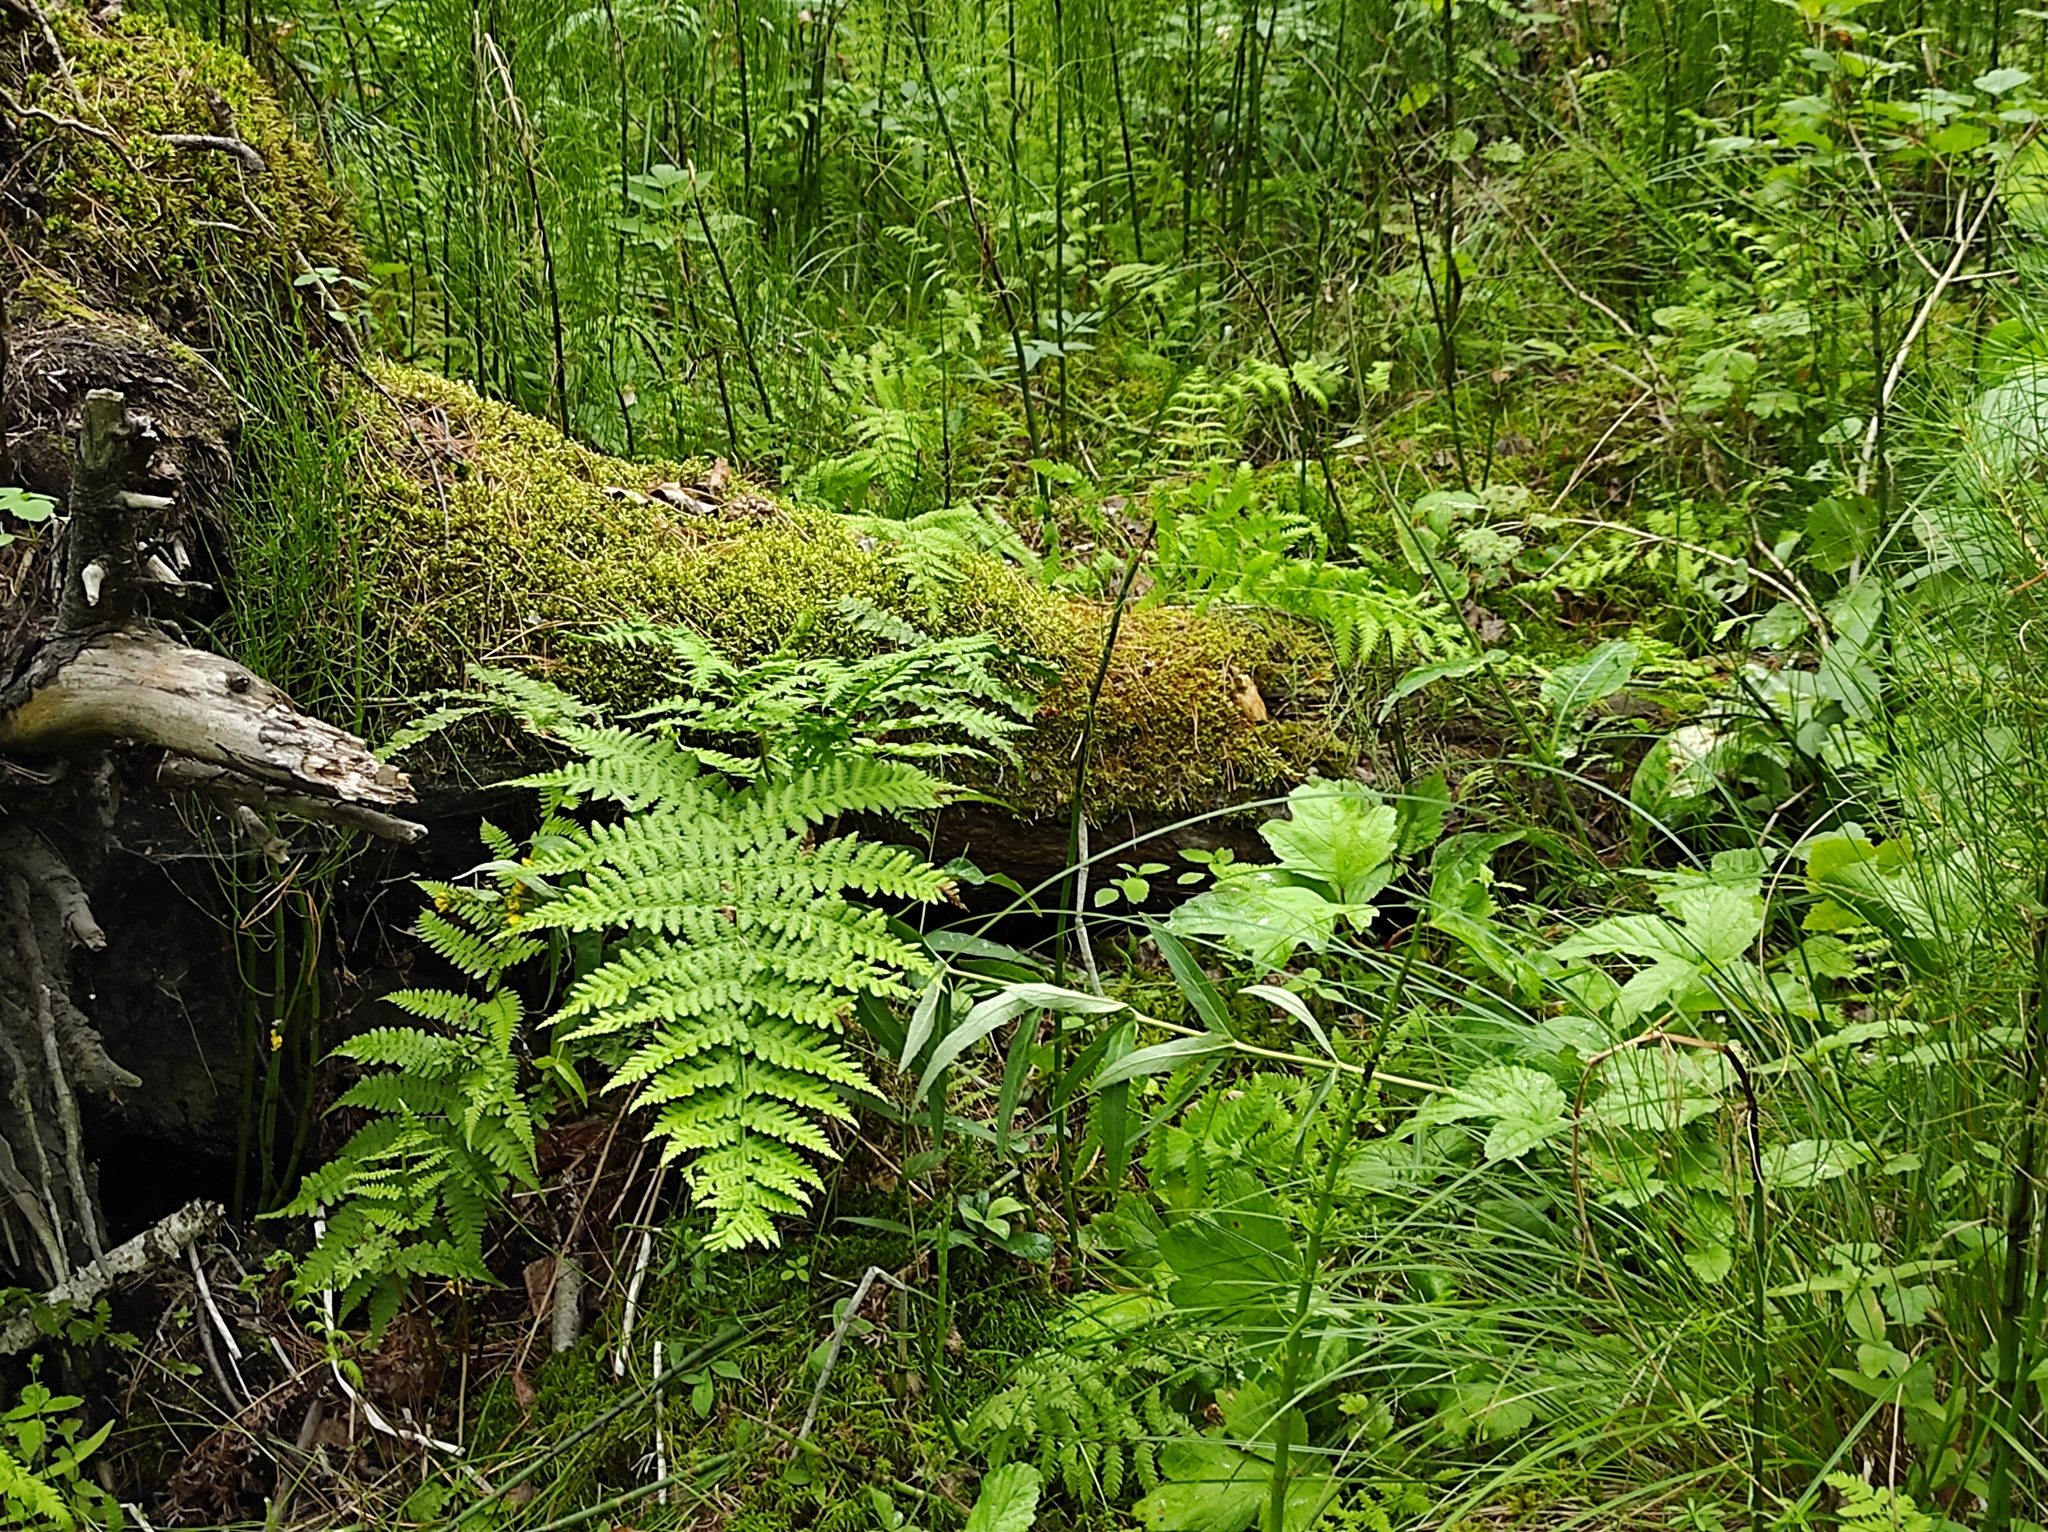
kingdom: Plantae
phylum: Tracheophyta
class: Magnoliopsida
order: Fagales
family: Betulaceae
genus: Betula
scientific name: Betula pubescens
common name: Downy birch
